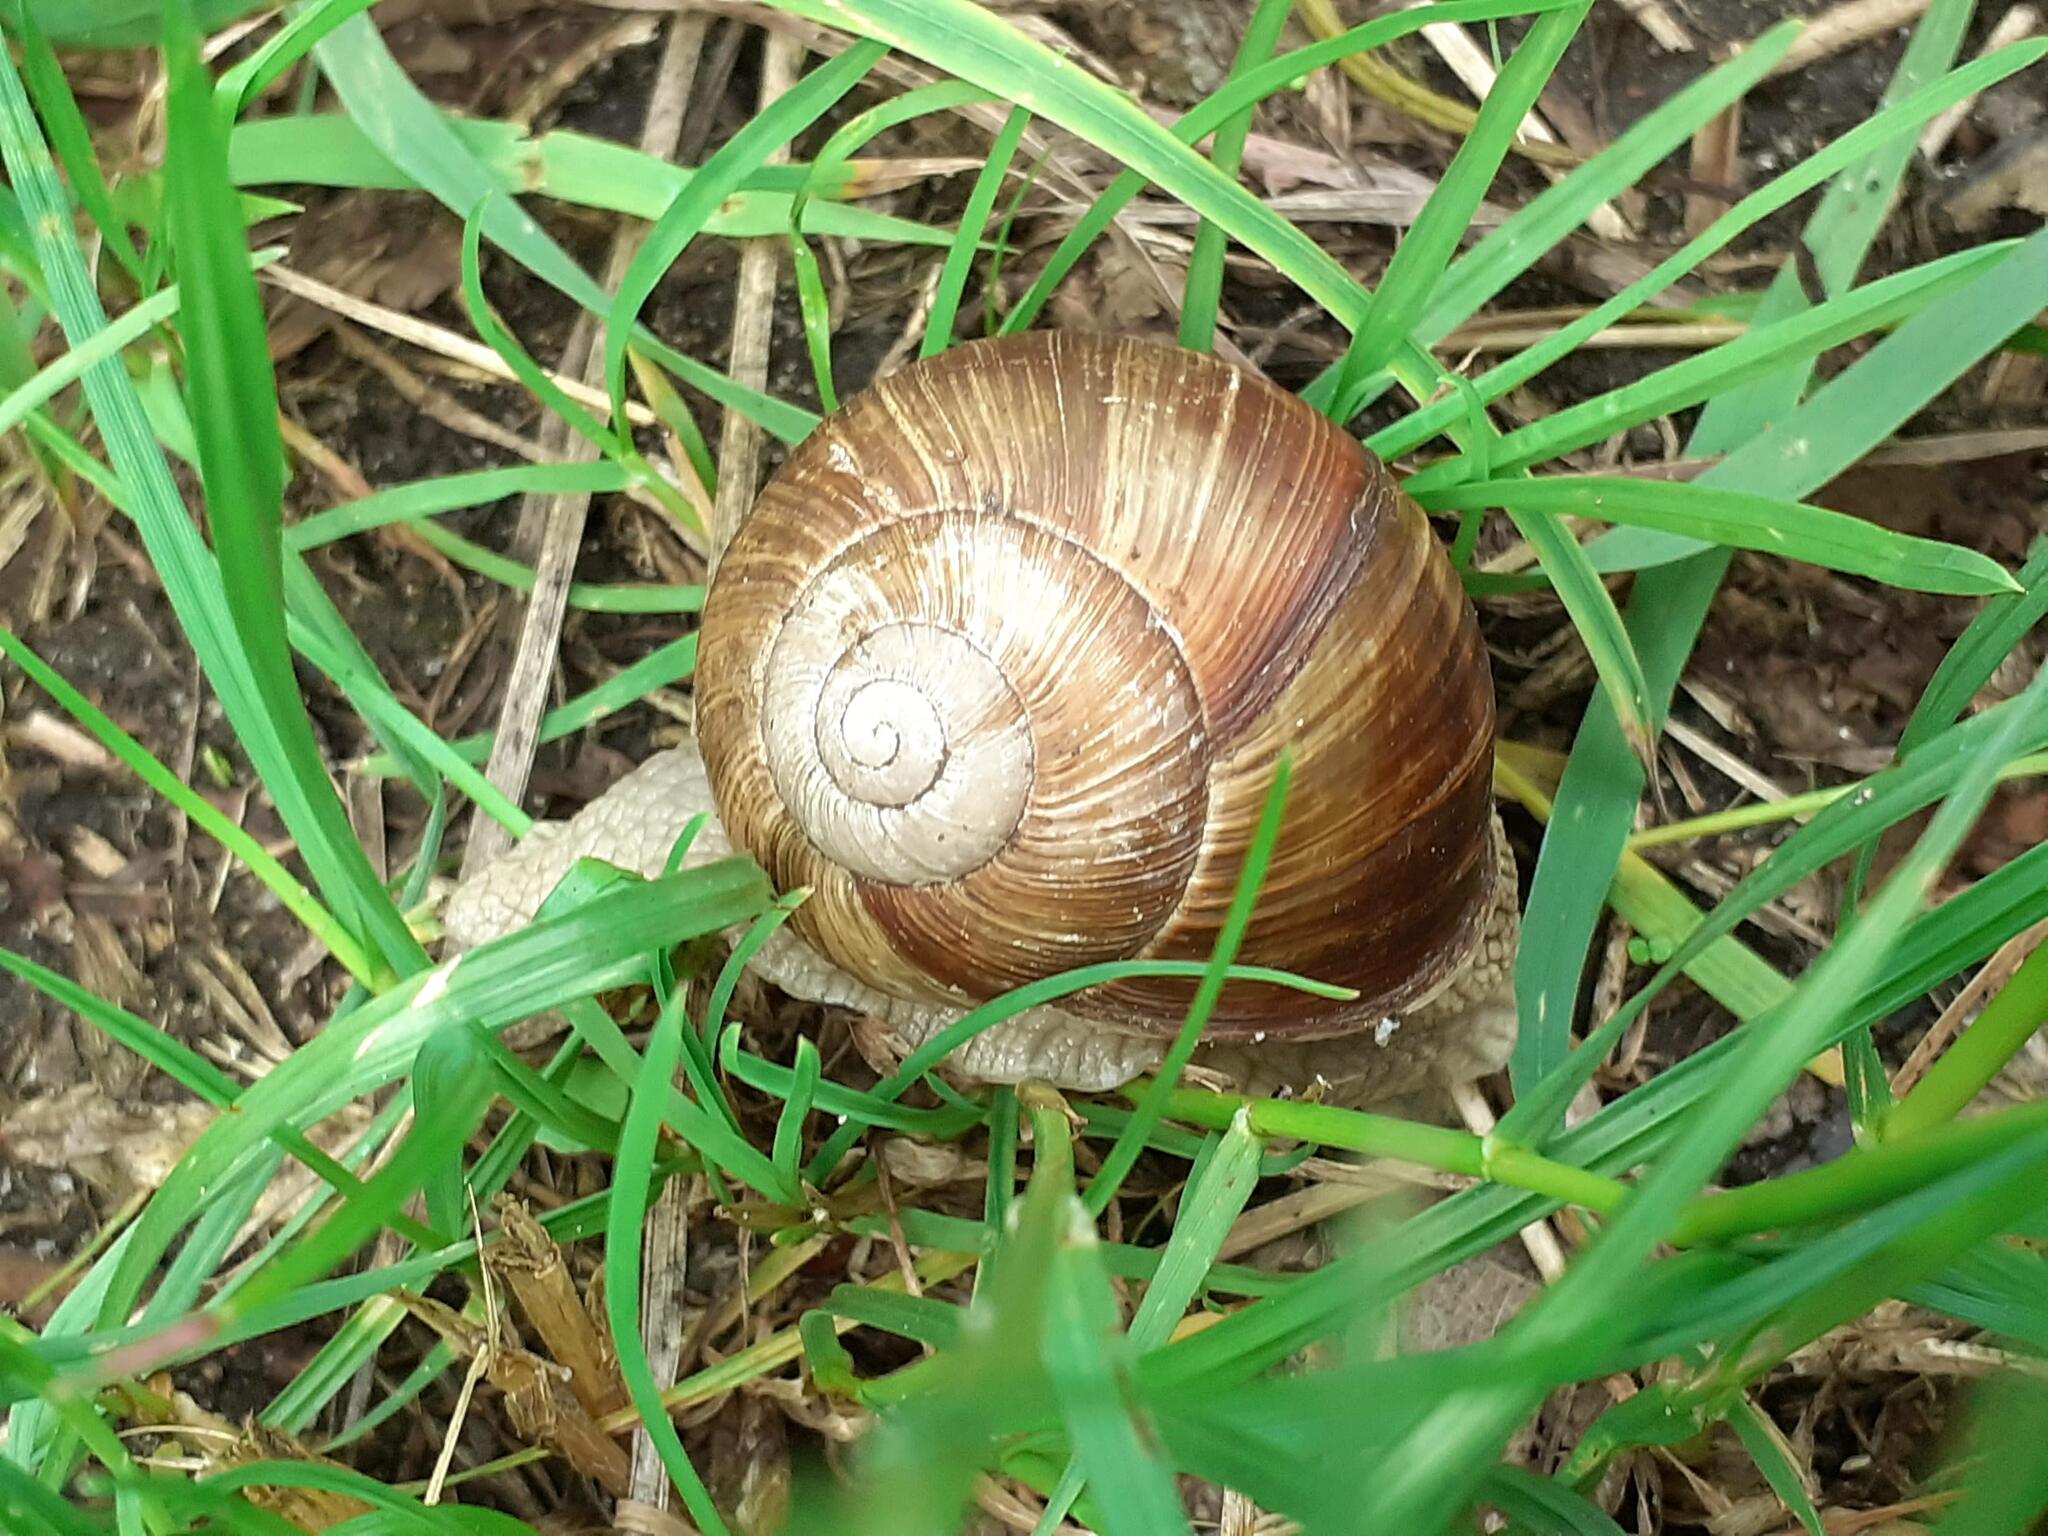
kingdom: Animalia
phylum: Mollusca
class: Gastropoda
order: Stylommatophora
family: Helicidae
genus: Helix
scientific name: Helix pomatia
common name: Roman snail
